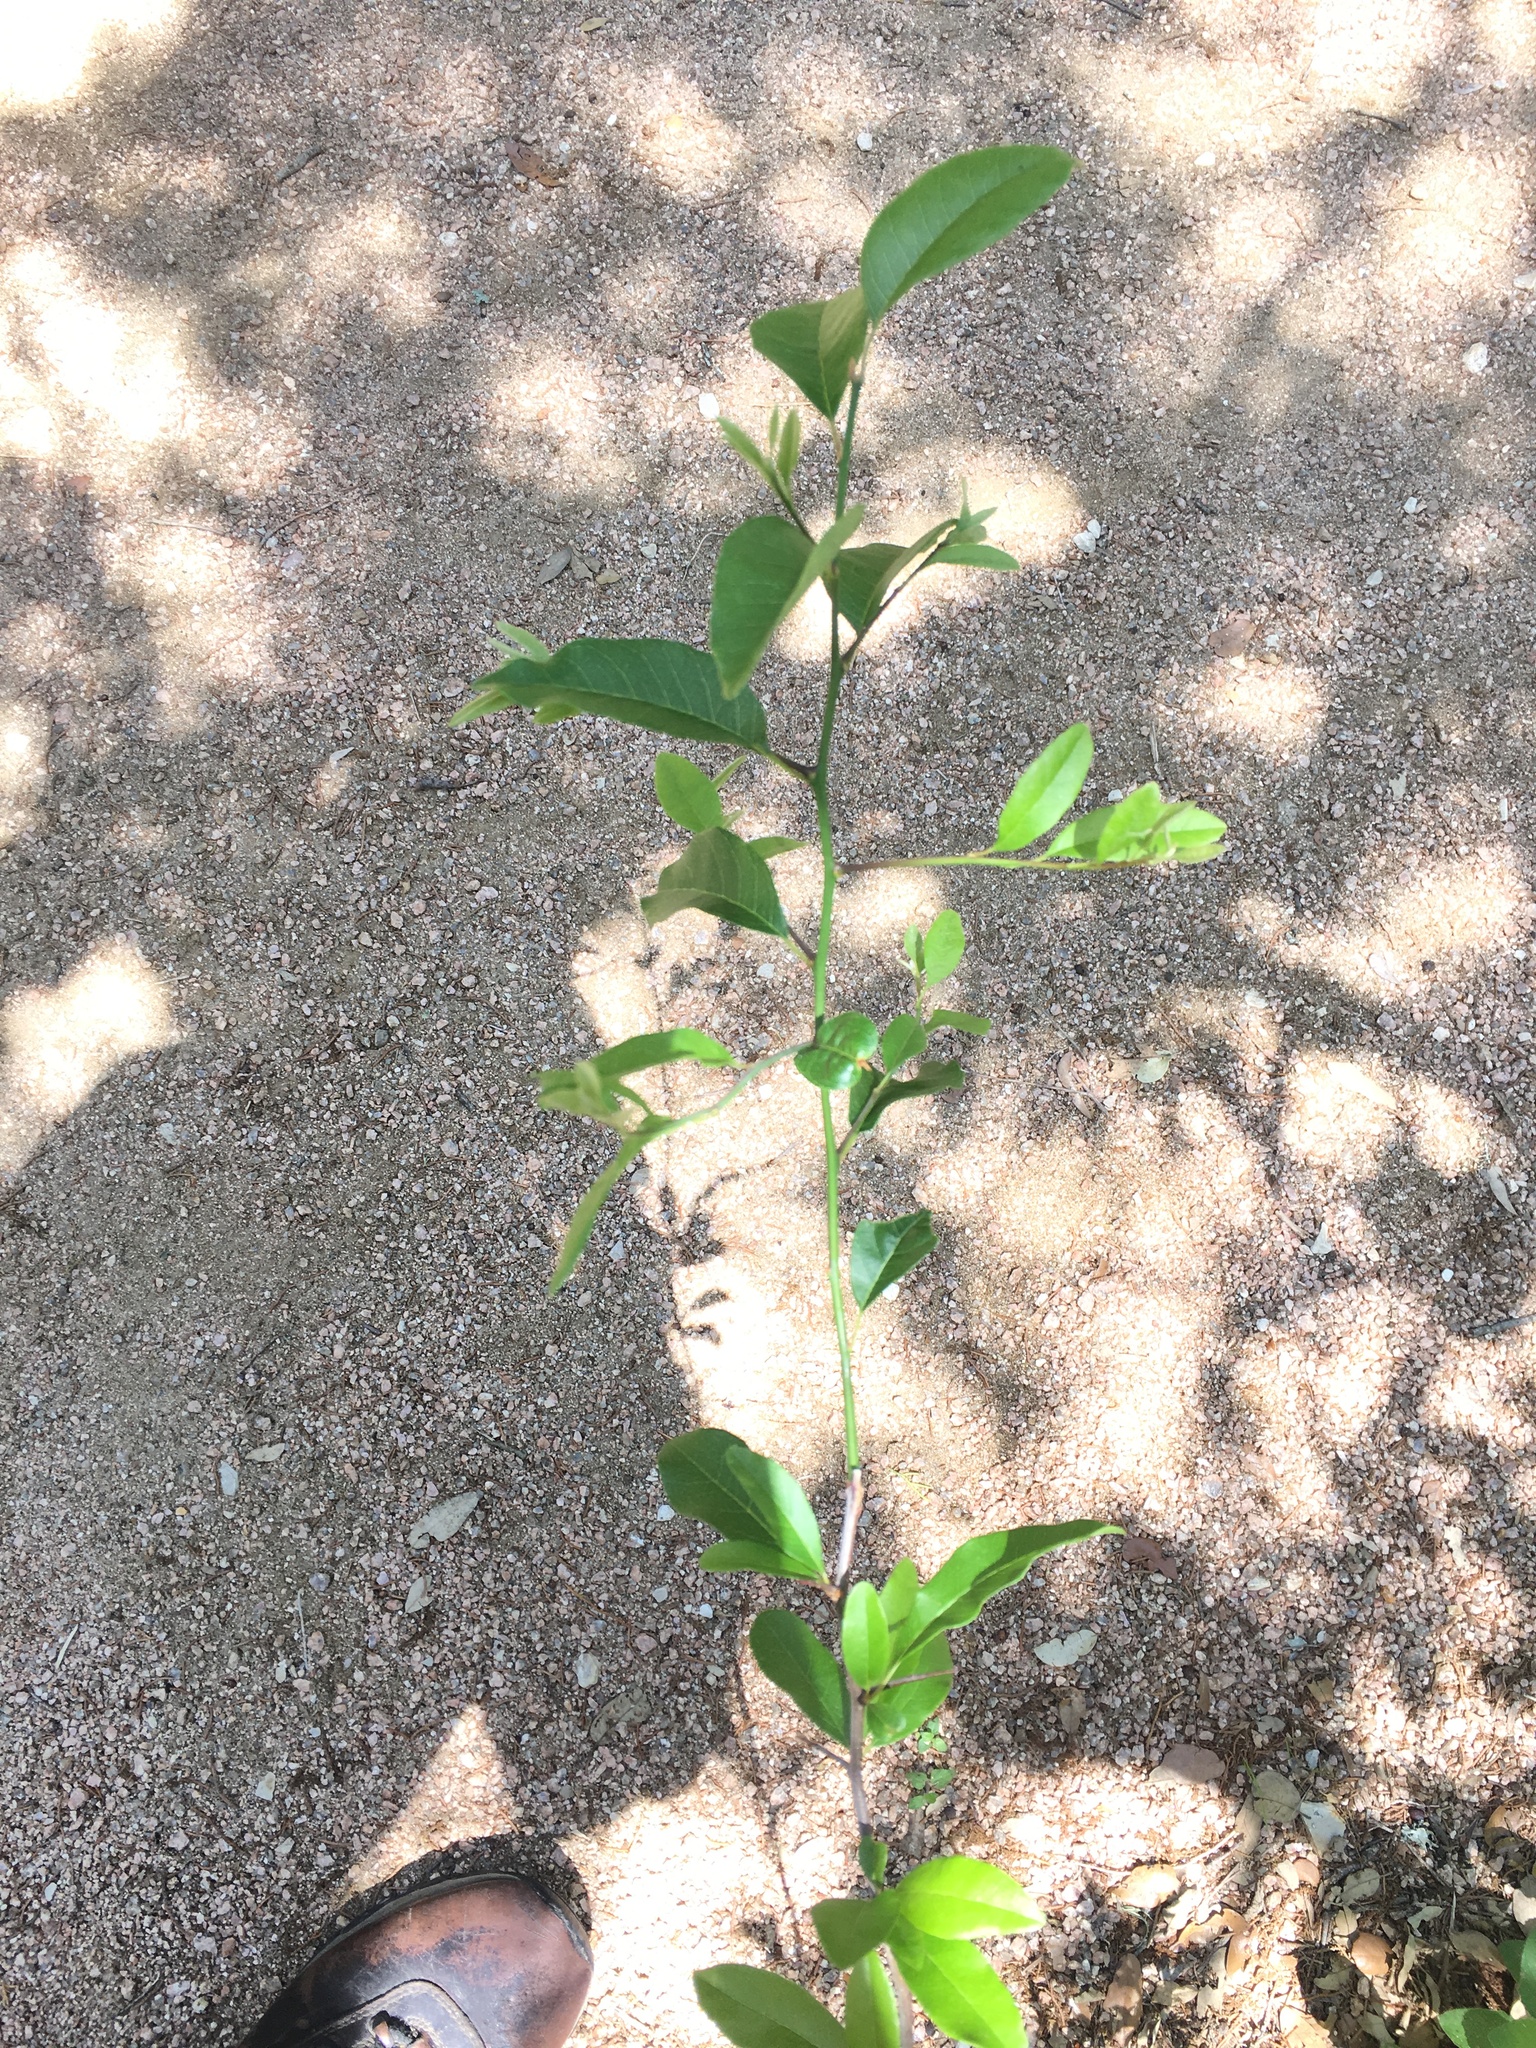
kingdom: Plantae
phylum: Tracheophyta
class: Magnoliopsida
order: Ericales
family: Sapotaceae
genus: Sideroxylon
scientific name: Sideroxylon lanuginosum
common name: Chittamwood
